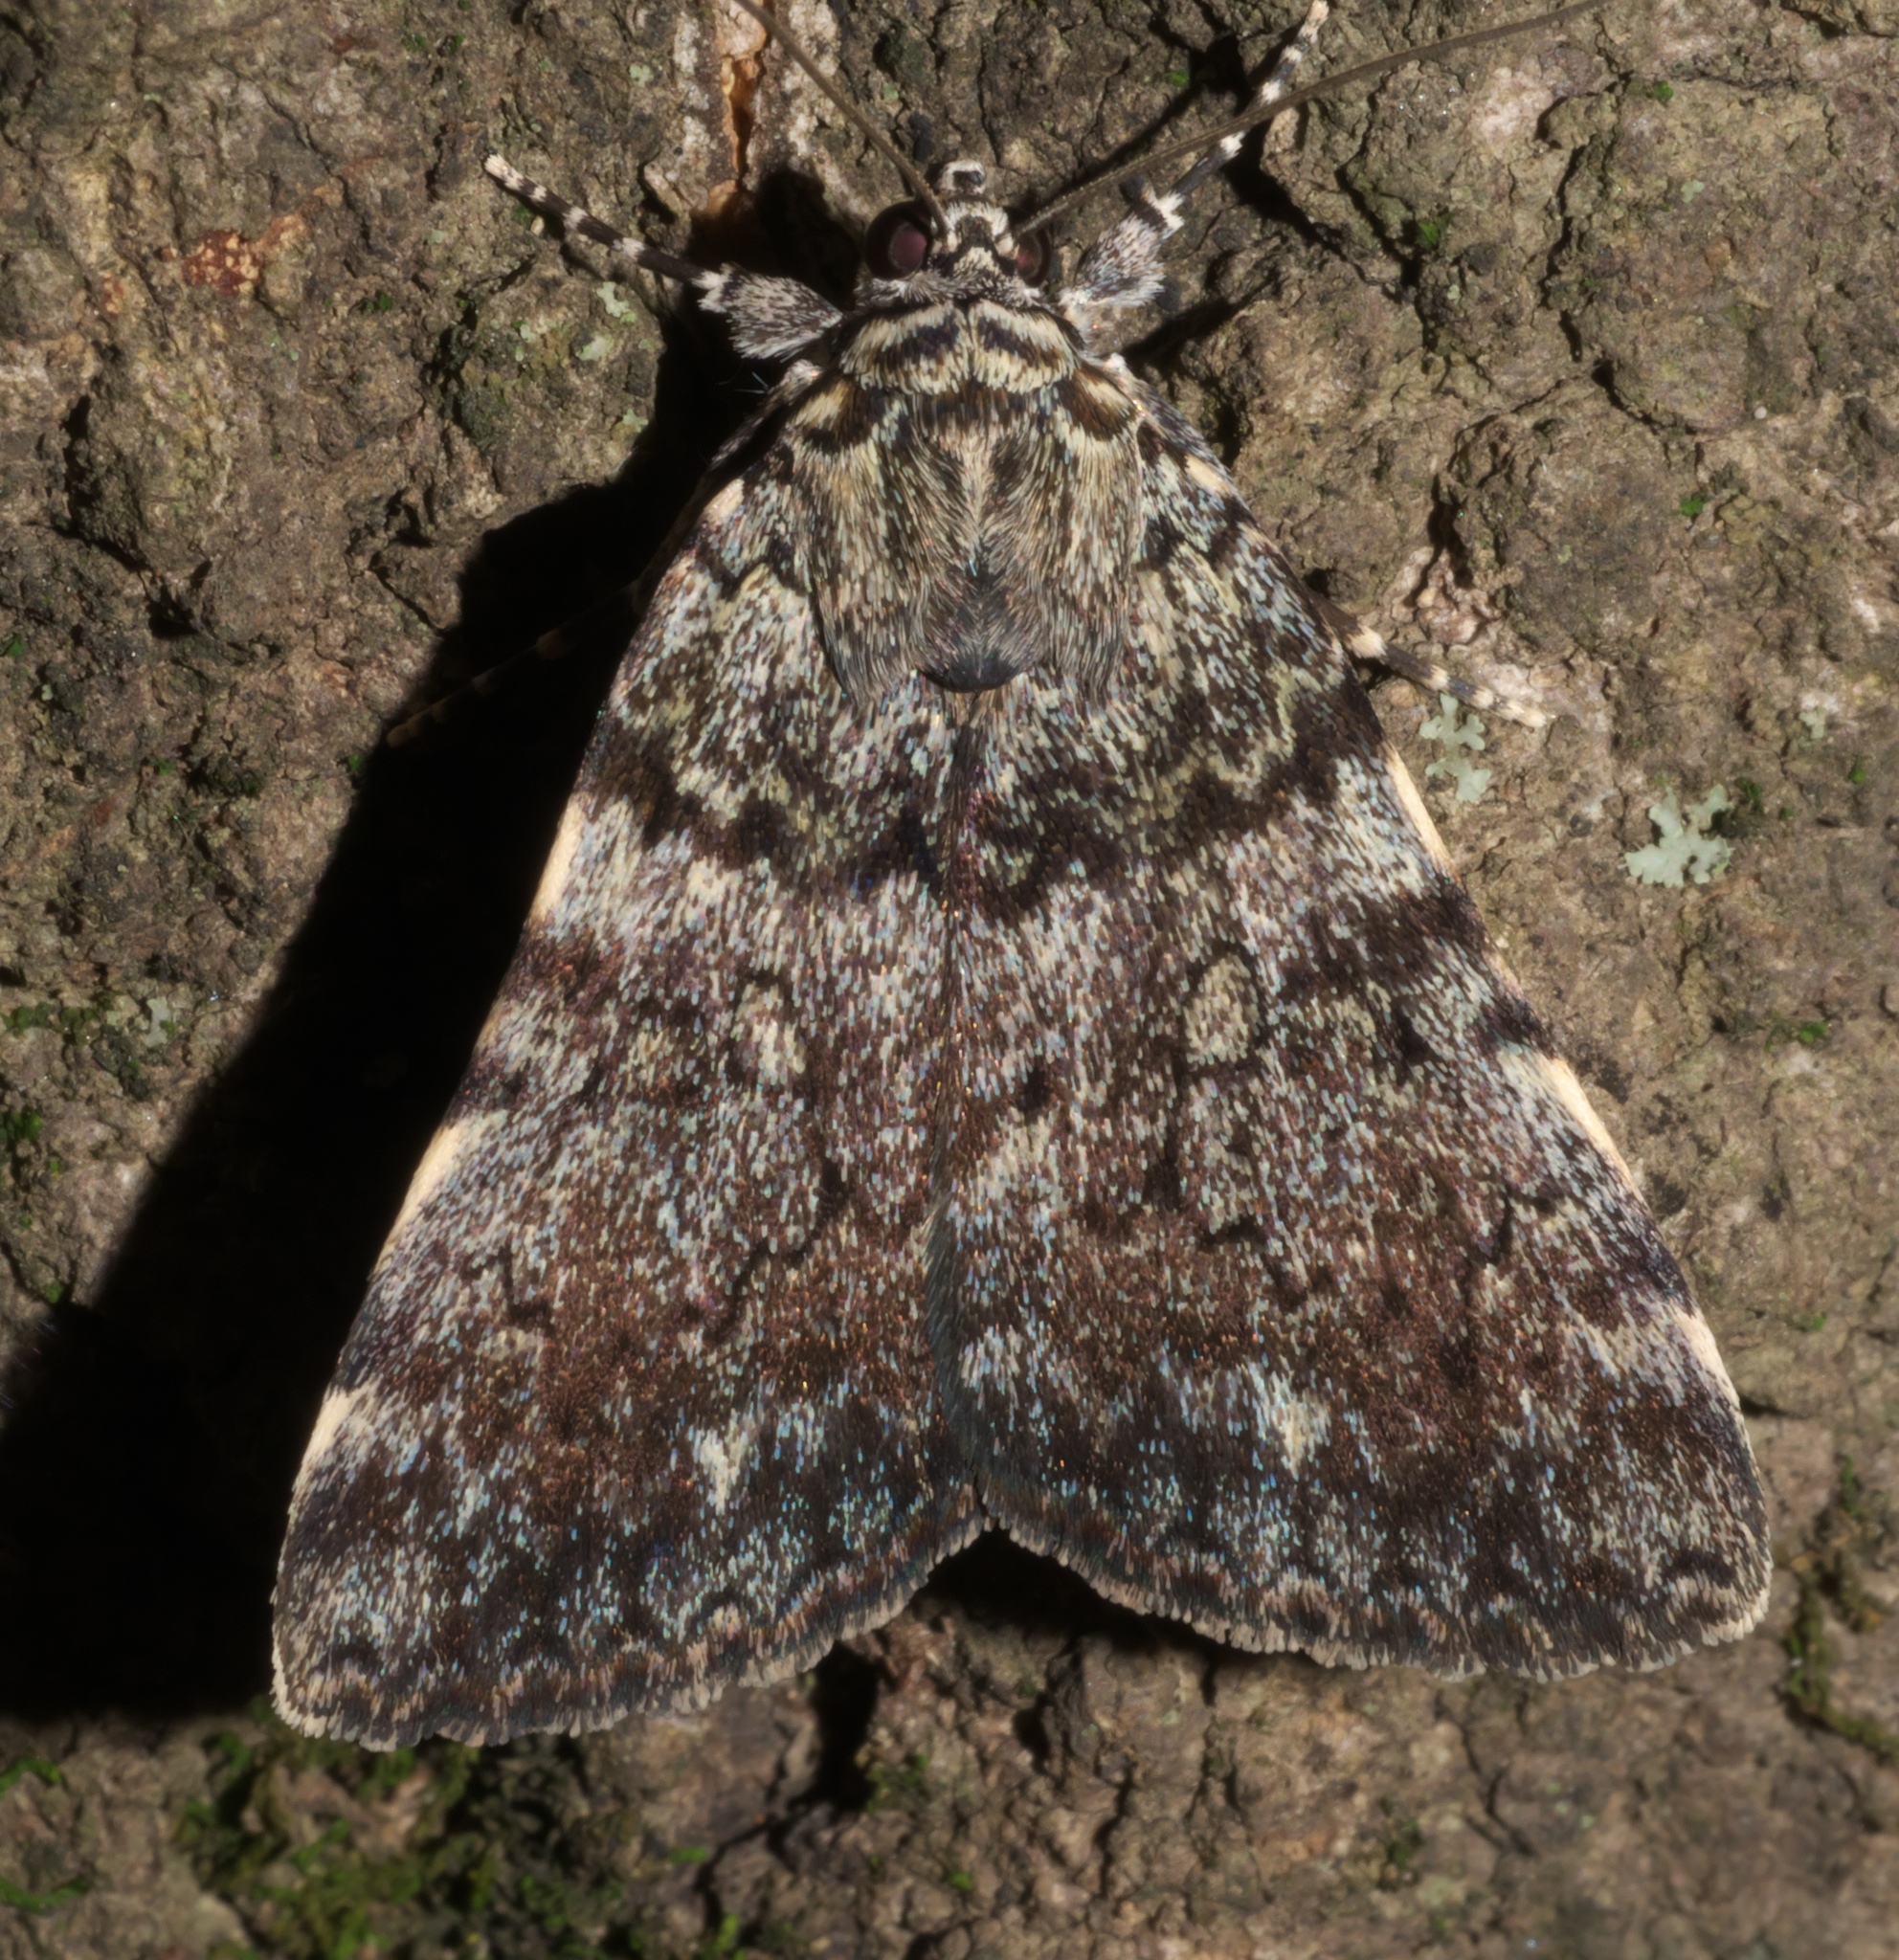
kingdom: Animalia
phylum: Arthropoda
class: Insecta
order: Lepidoptera
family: Erebidae
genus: Catocala
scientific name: Catocala lineella
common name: Little lined underwing
